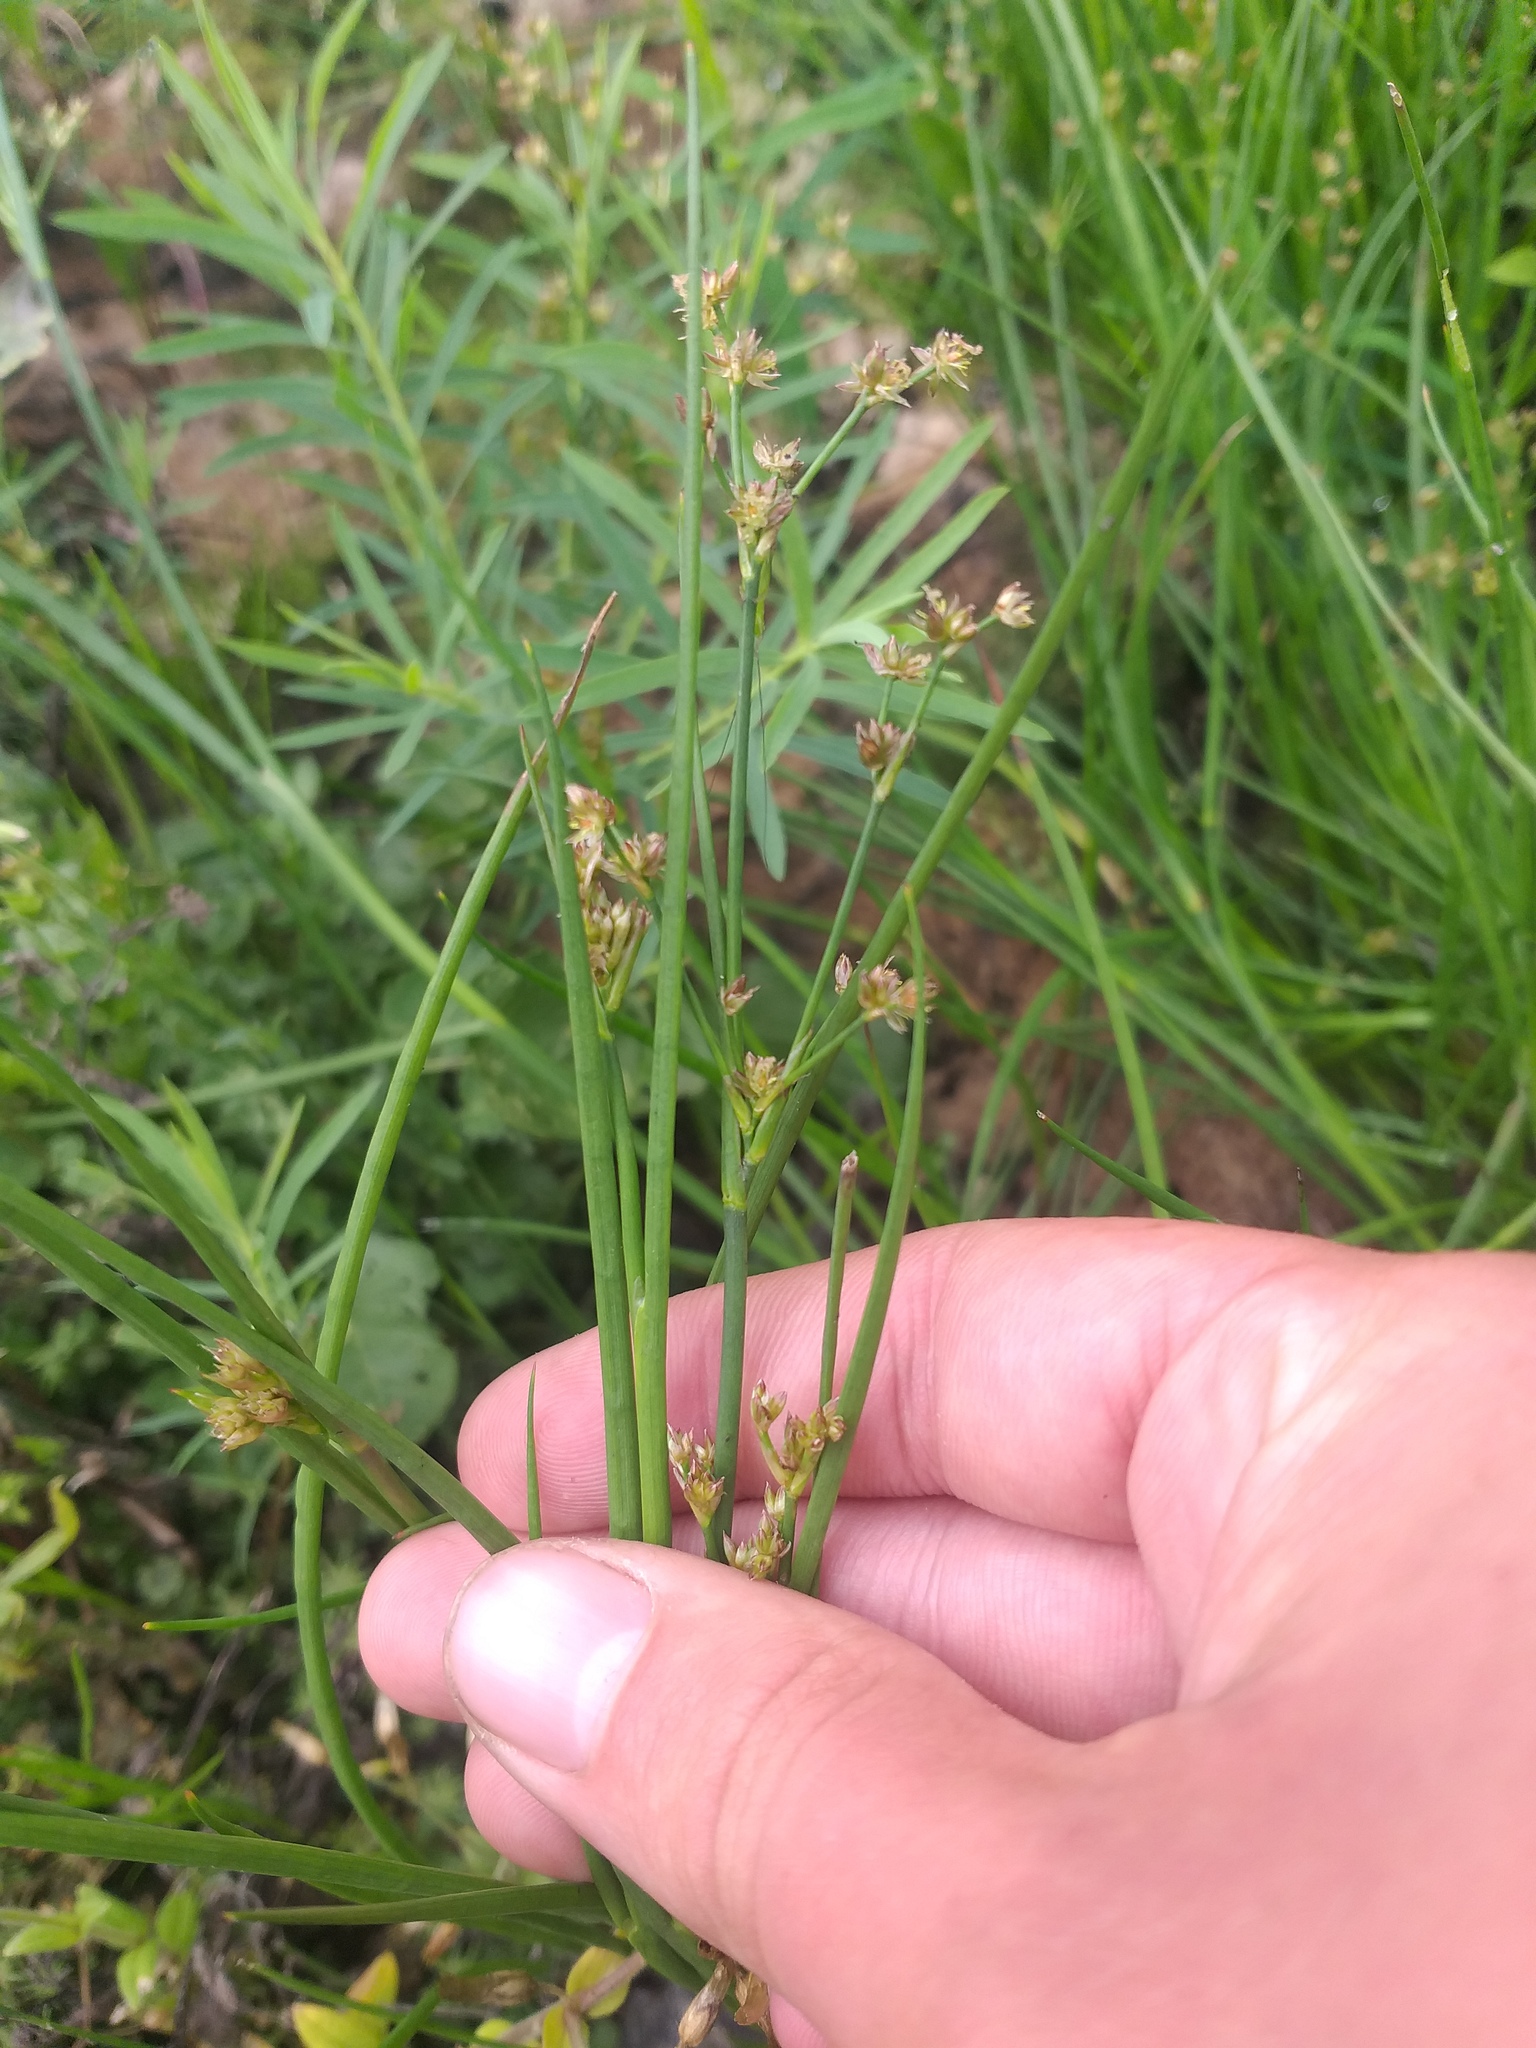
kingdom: Plantae
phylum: Tracheophyta
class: Liliopsida
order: Poales
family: Juncaceae
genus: Juncus
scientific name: Juncus articulatus
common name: Jointed rush
